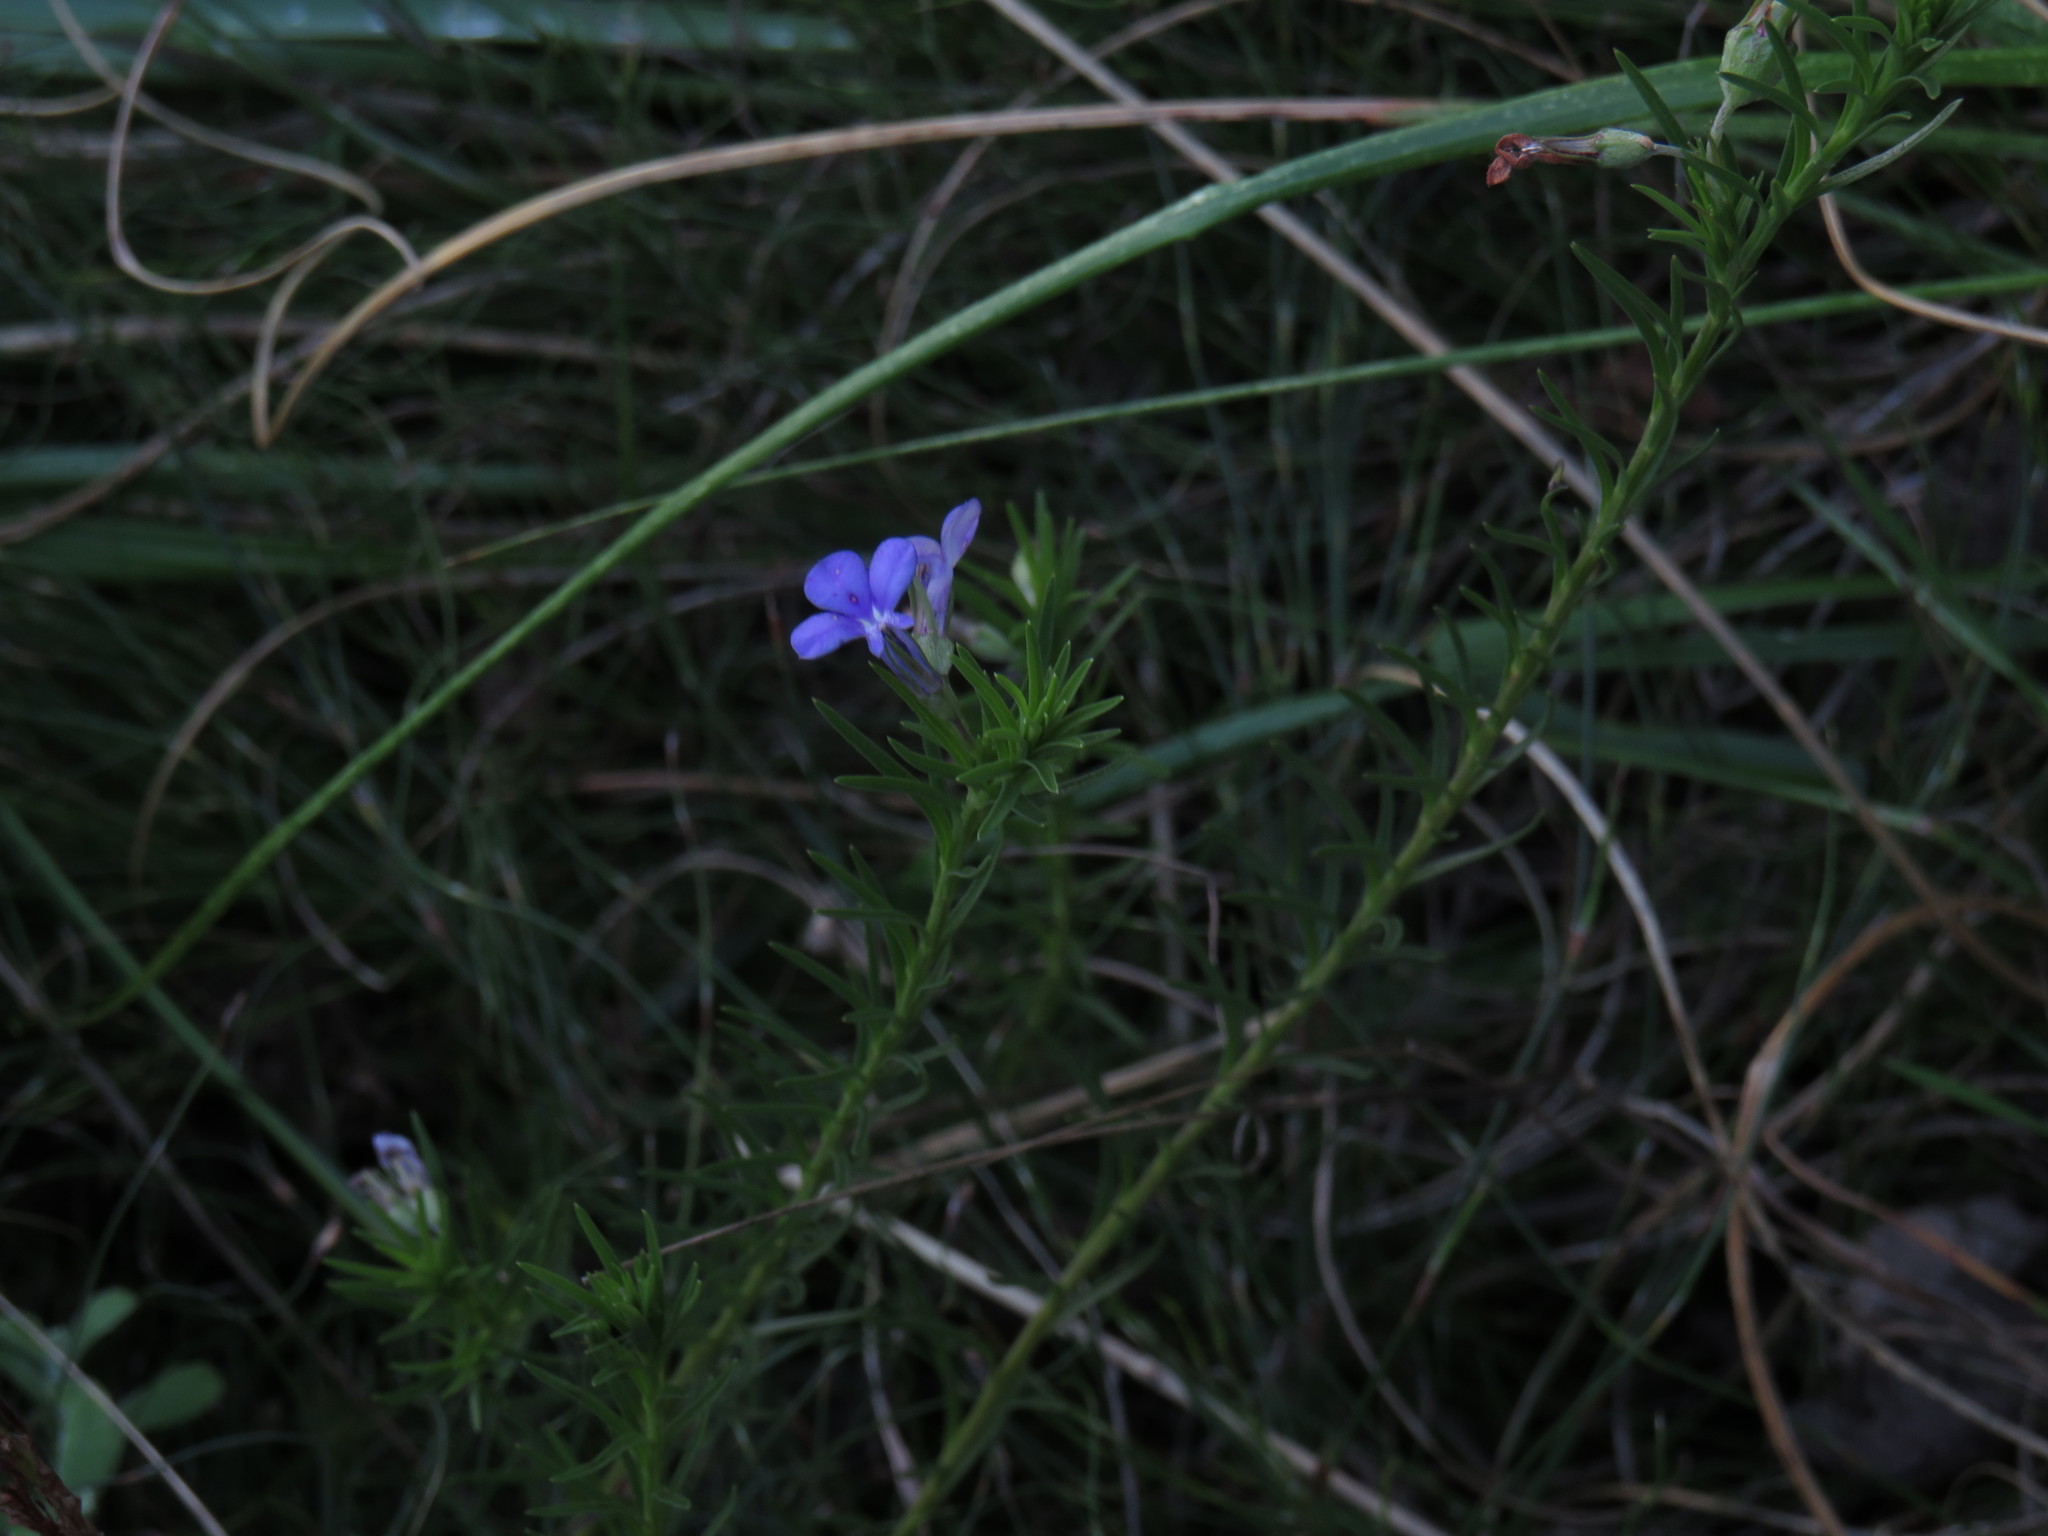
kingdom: Plantae
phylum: Tracheophyta
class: Magnoliopsida
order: Asterales
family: Campanulaceae
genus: Lobelia
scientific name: Lobelia pinifolia
